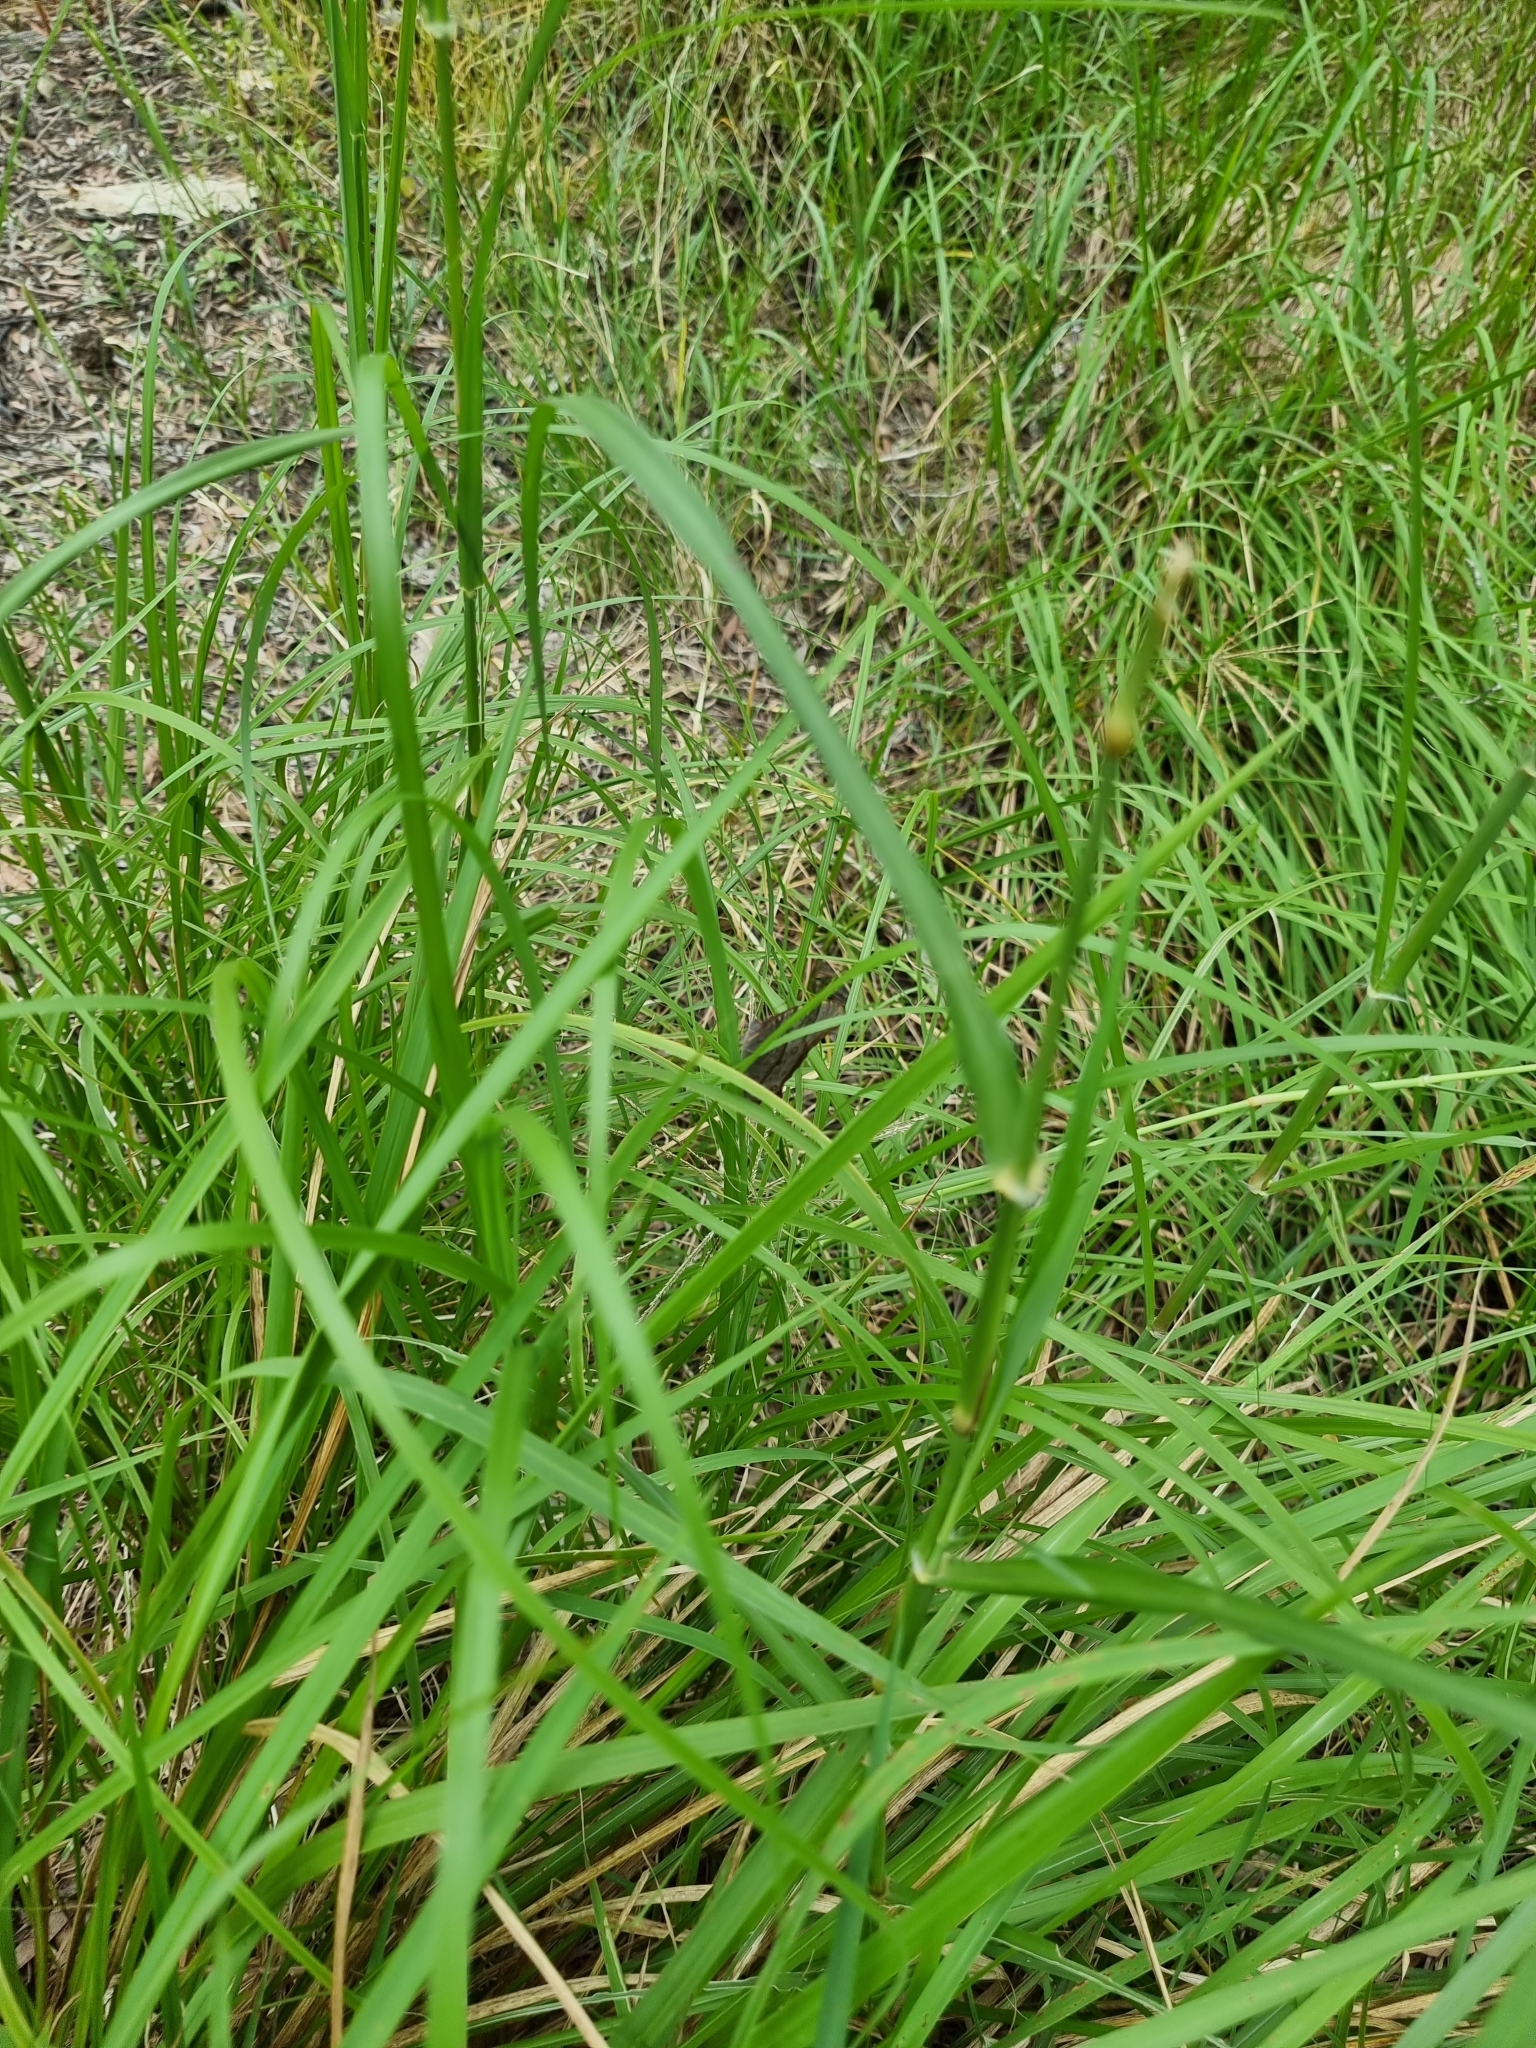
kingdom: Animalia
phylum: Arthropoda
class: Insecta
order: Lepidoptera
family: Nymphalidae
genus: Melanitis
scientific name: Melanitis leda
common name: Twilight brown
